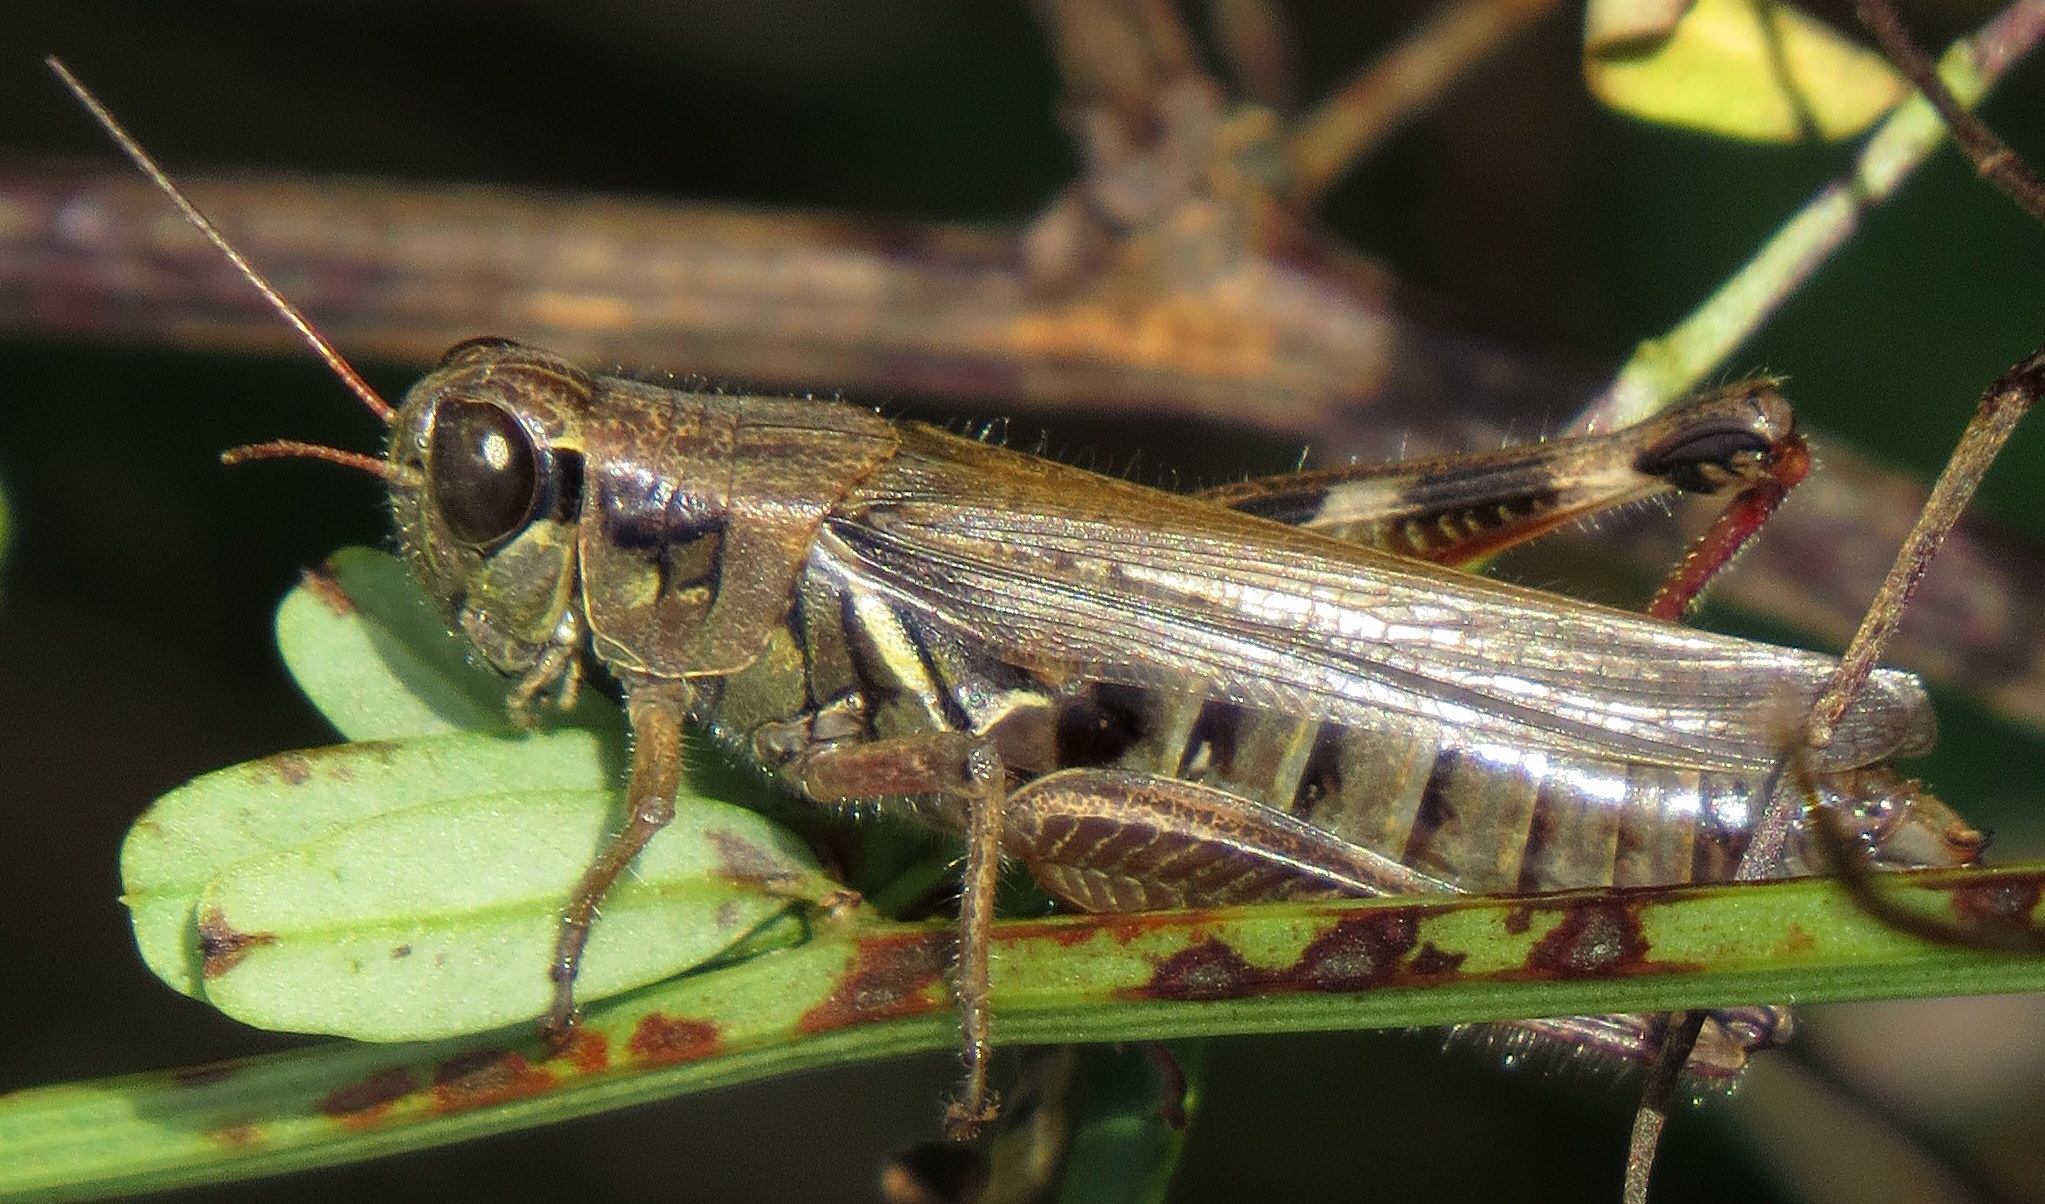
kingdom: Animalia
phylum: Arthropoda
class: Insecta
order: Orthoptera
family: Acrididae
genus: Melanoplus
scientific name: Melanoplus femurrubrum
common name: Red-legged grasshopper
